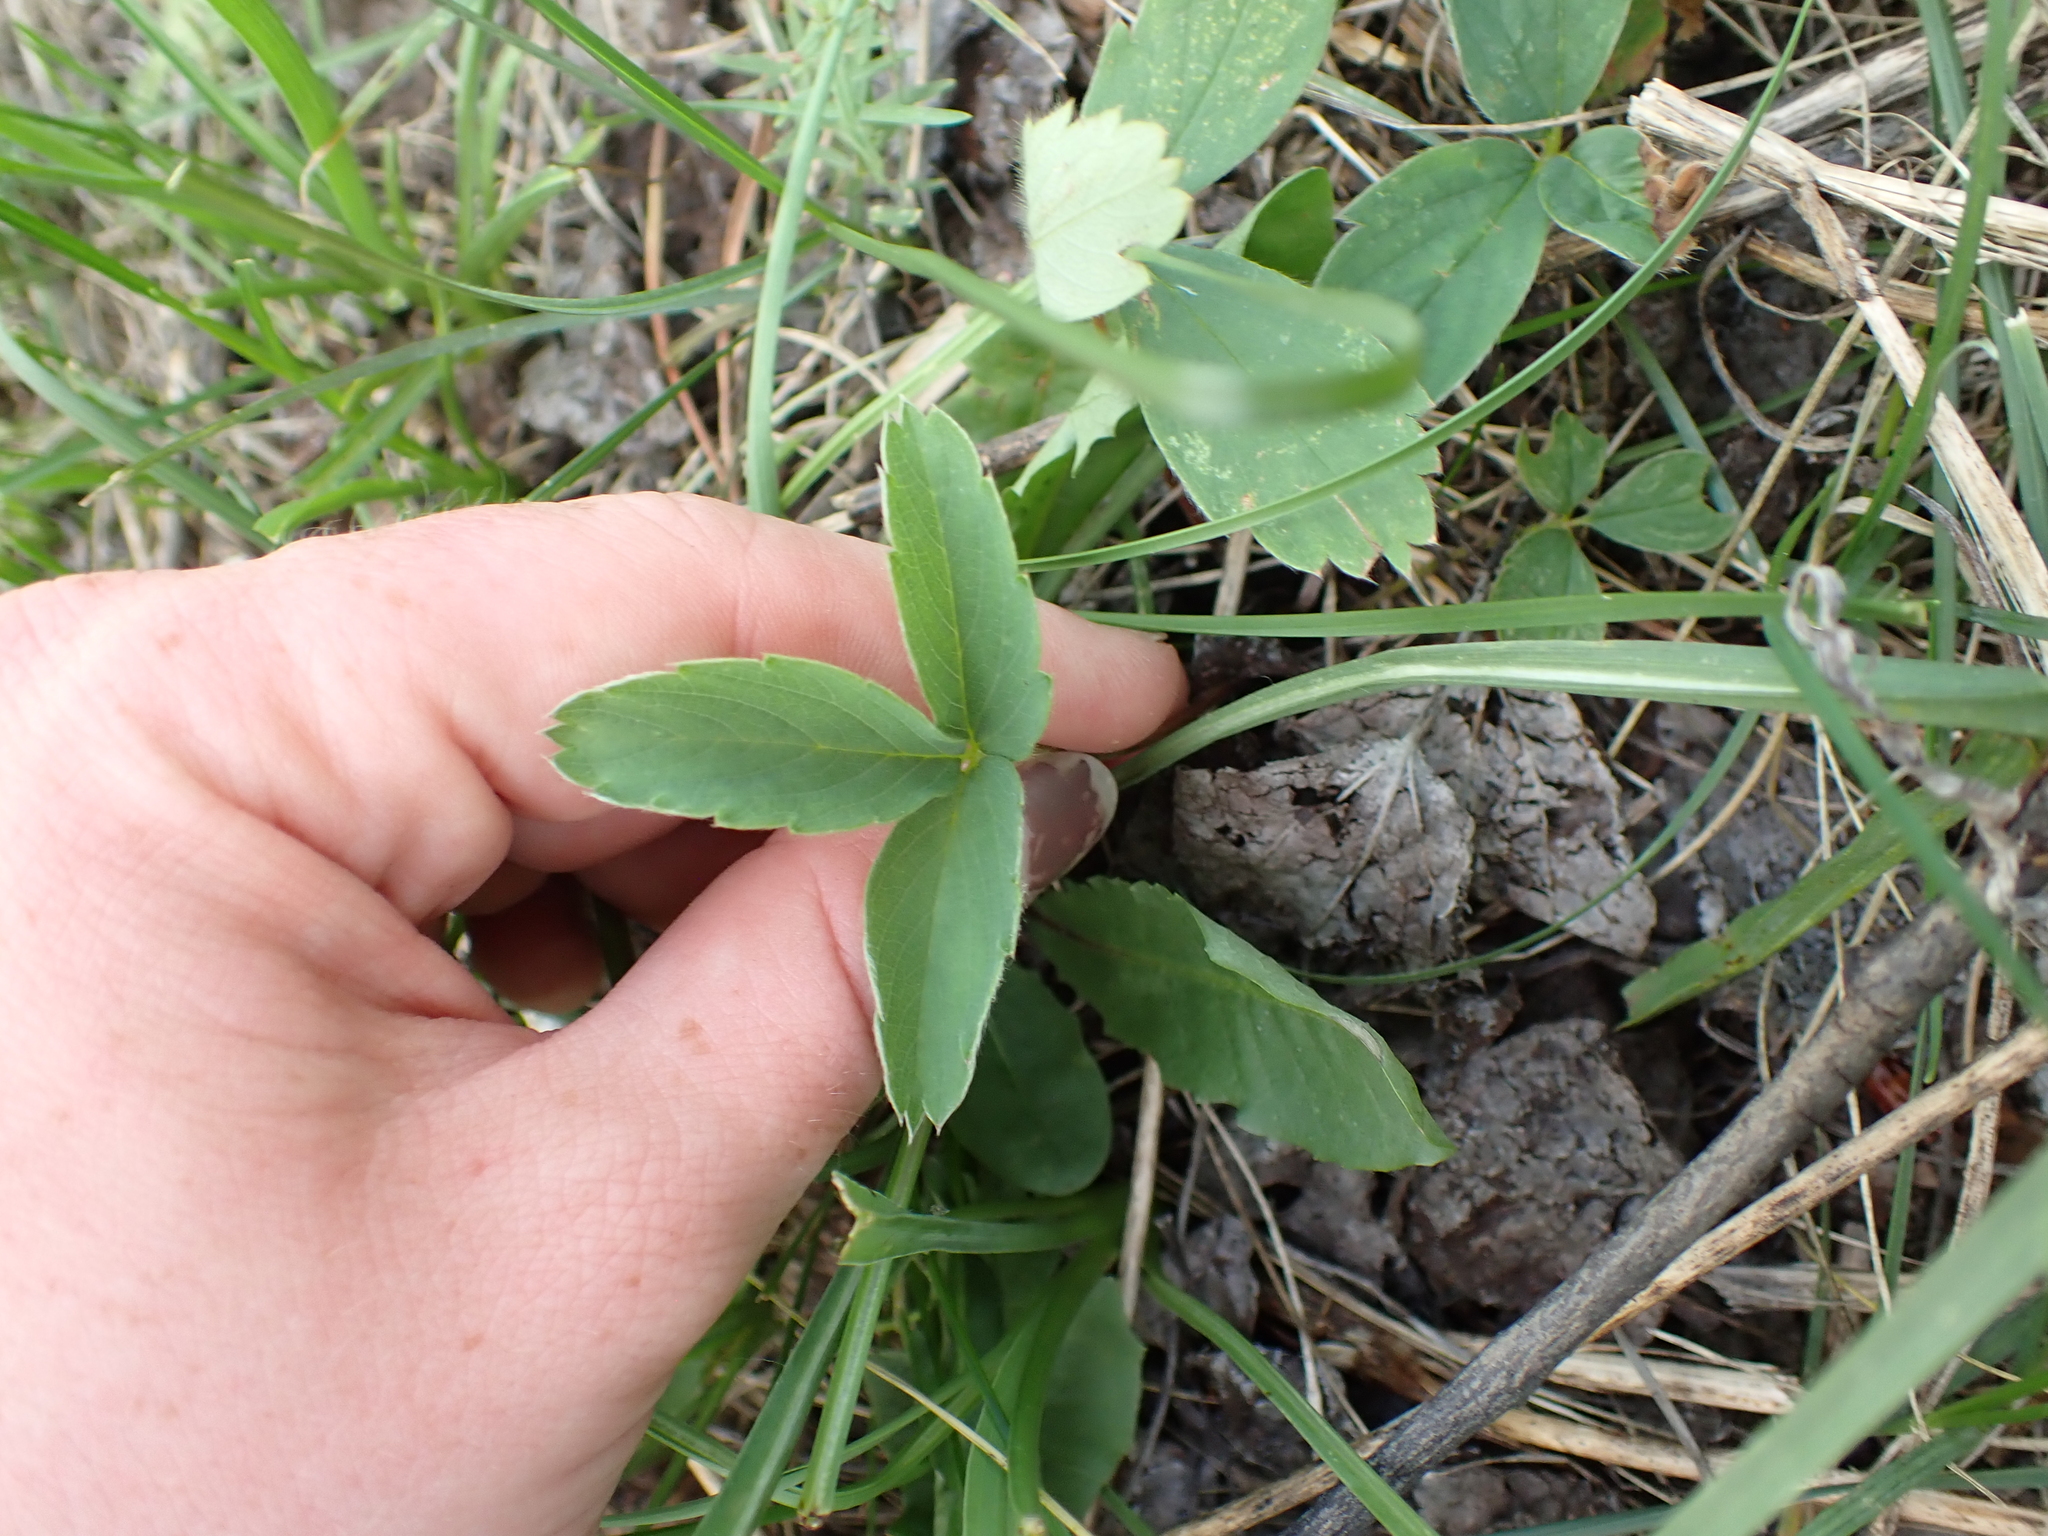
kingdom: Plantae
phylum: Tracheophyta
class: Magnoliopsida
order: Rosales
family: Rosaceae
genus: Fragaria
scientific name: Fragaria virginiana
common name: Thickleaved wild strawberry
